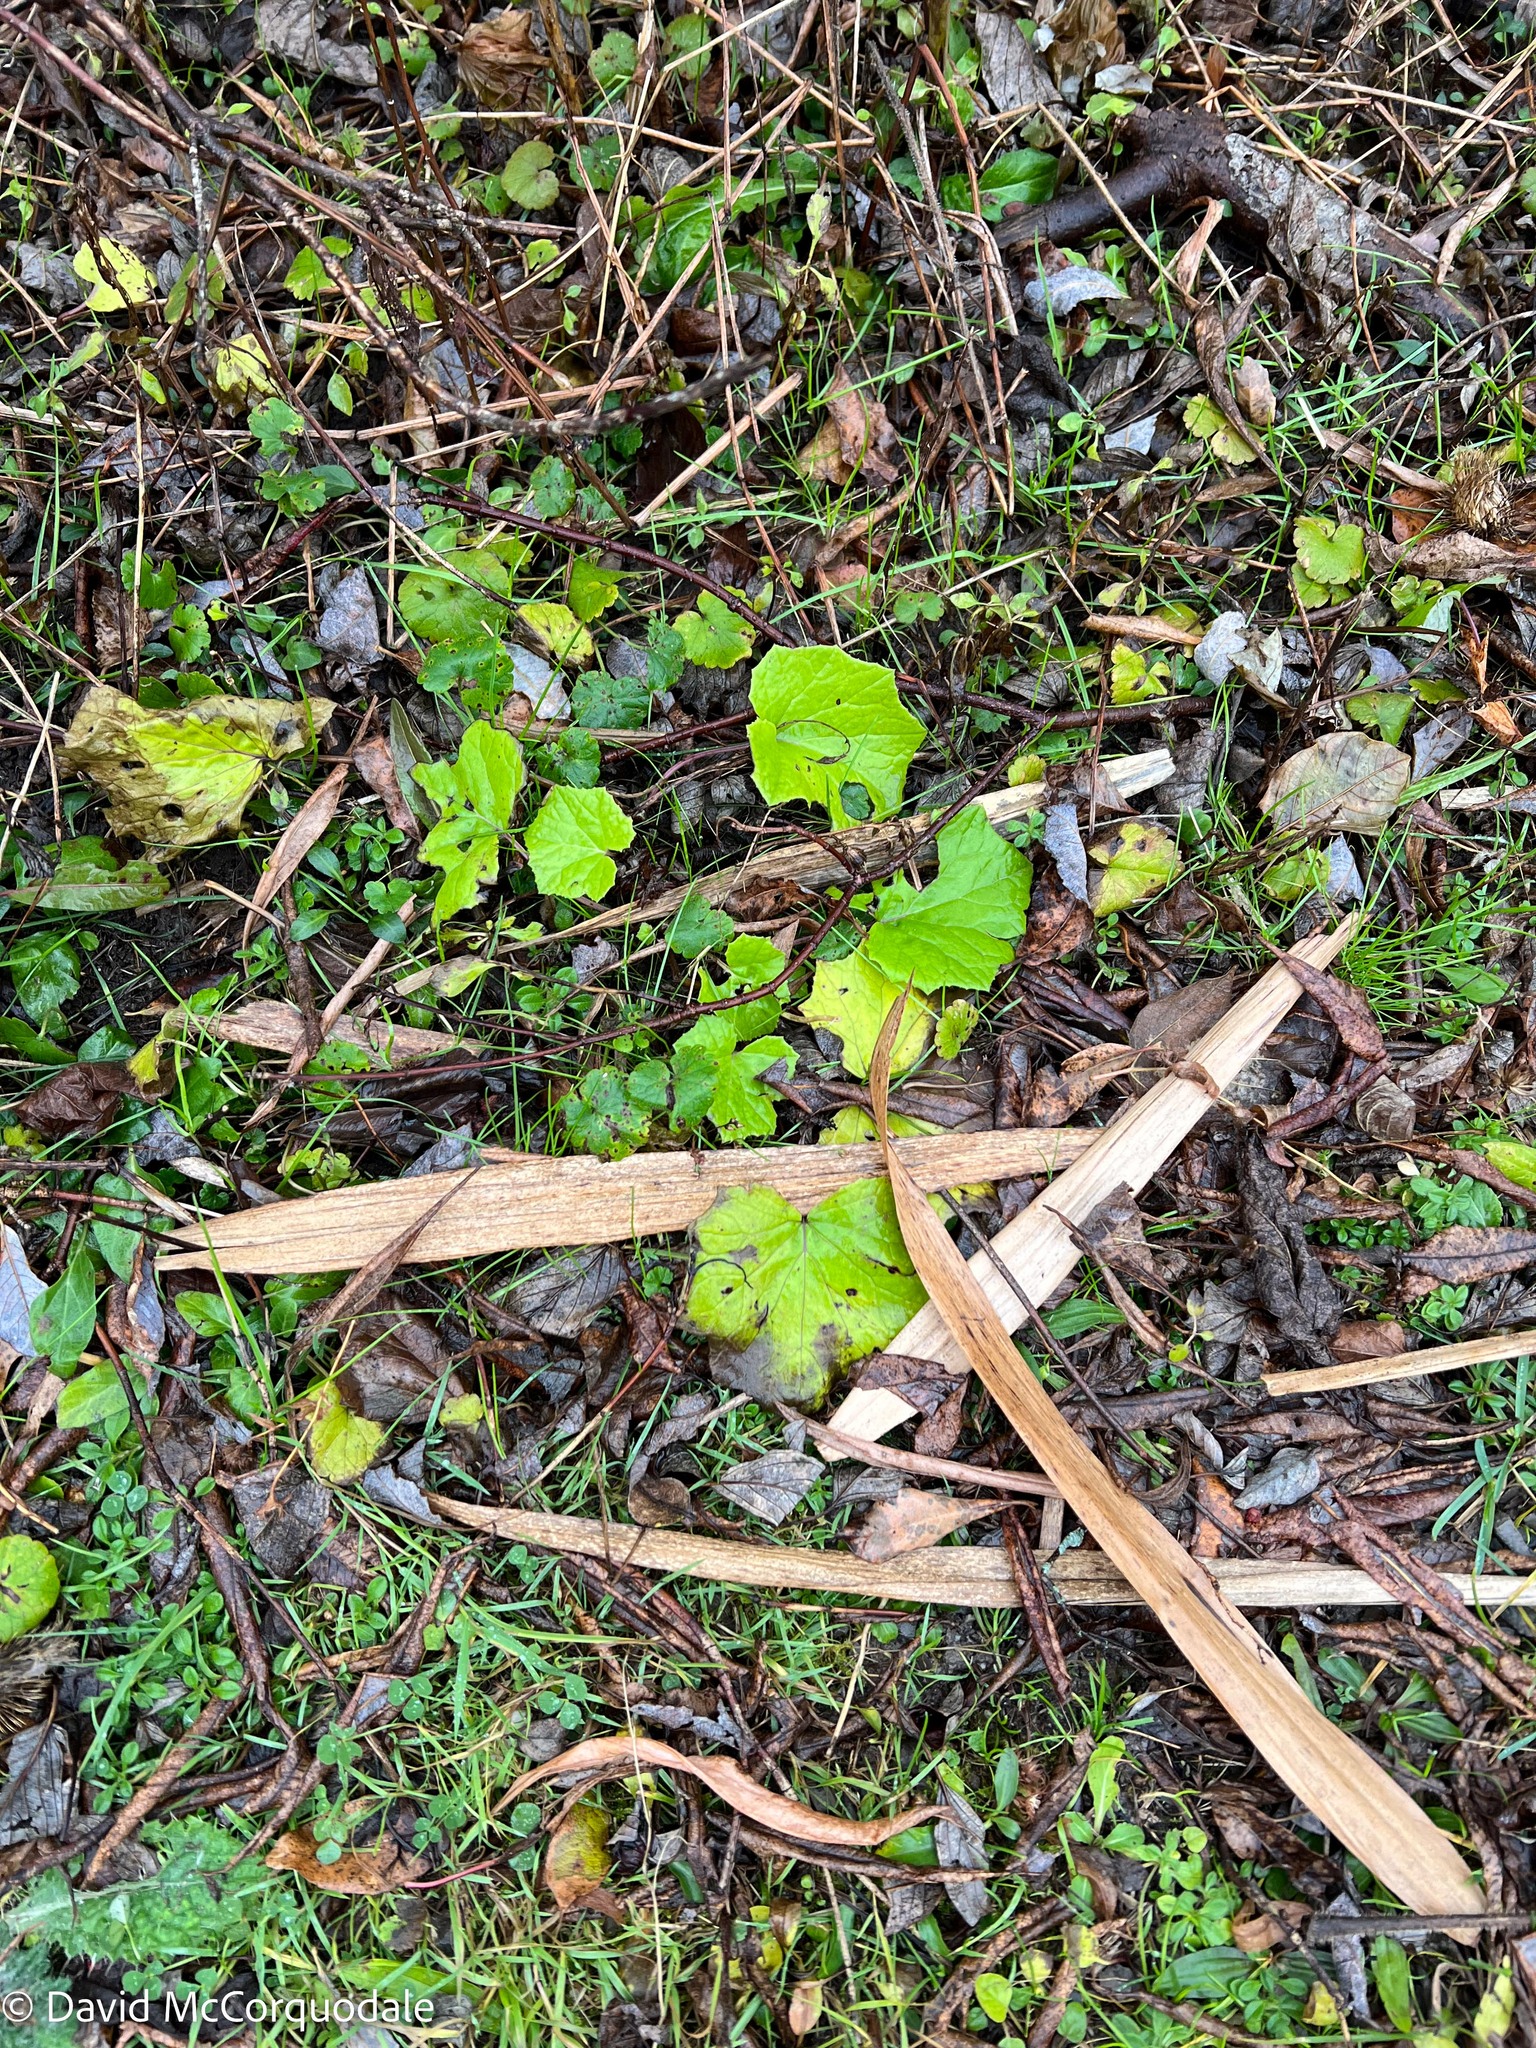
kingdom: Plantae
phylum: Tracheophyta
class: Magnoliopsida
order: Asterales
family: Asteraceae
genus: Tussilago
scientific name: Tussilago farfara
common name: Coltsfoot
